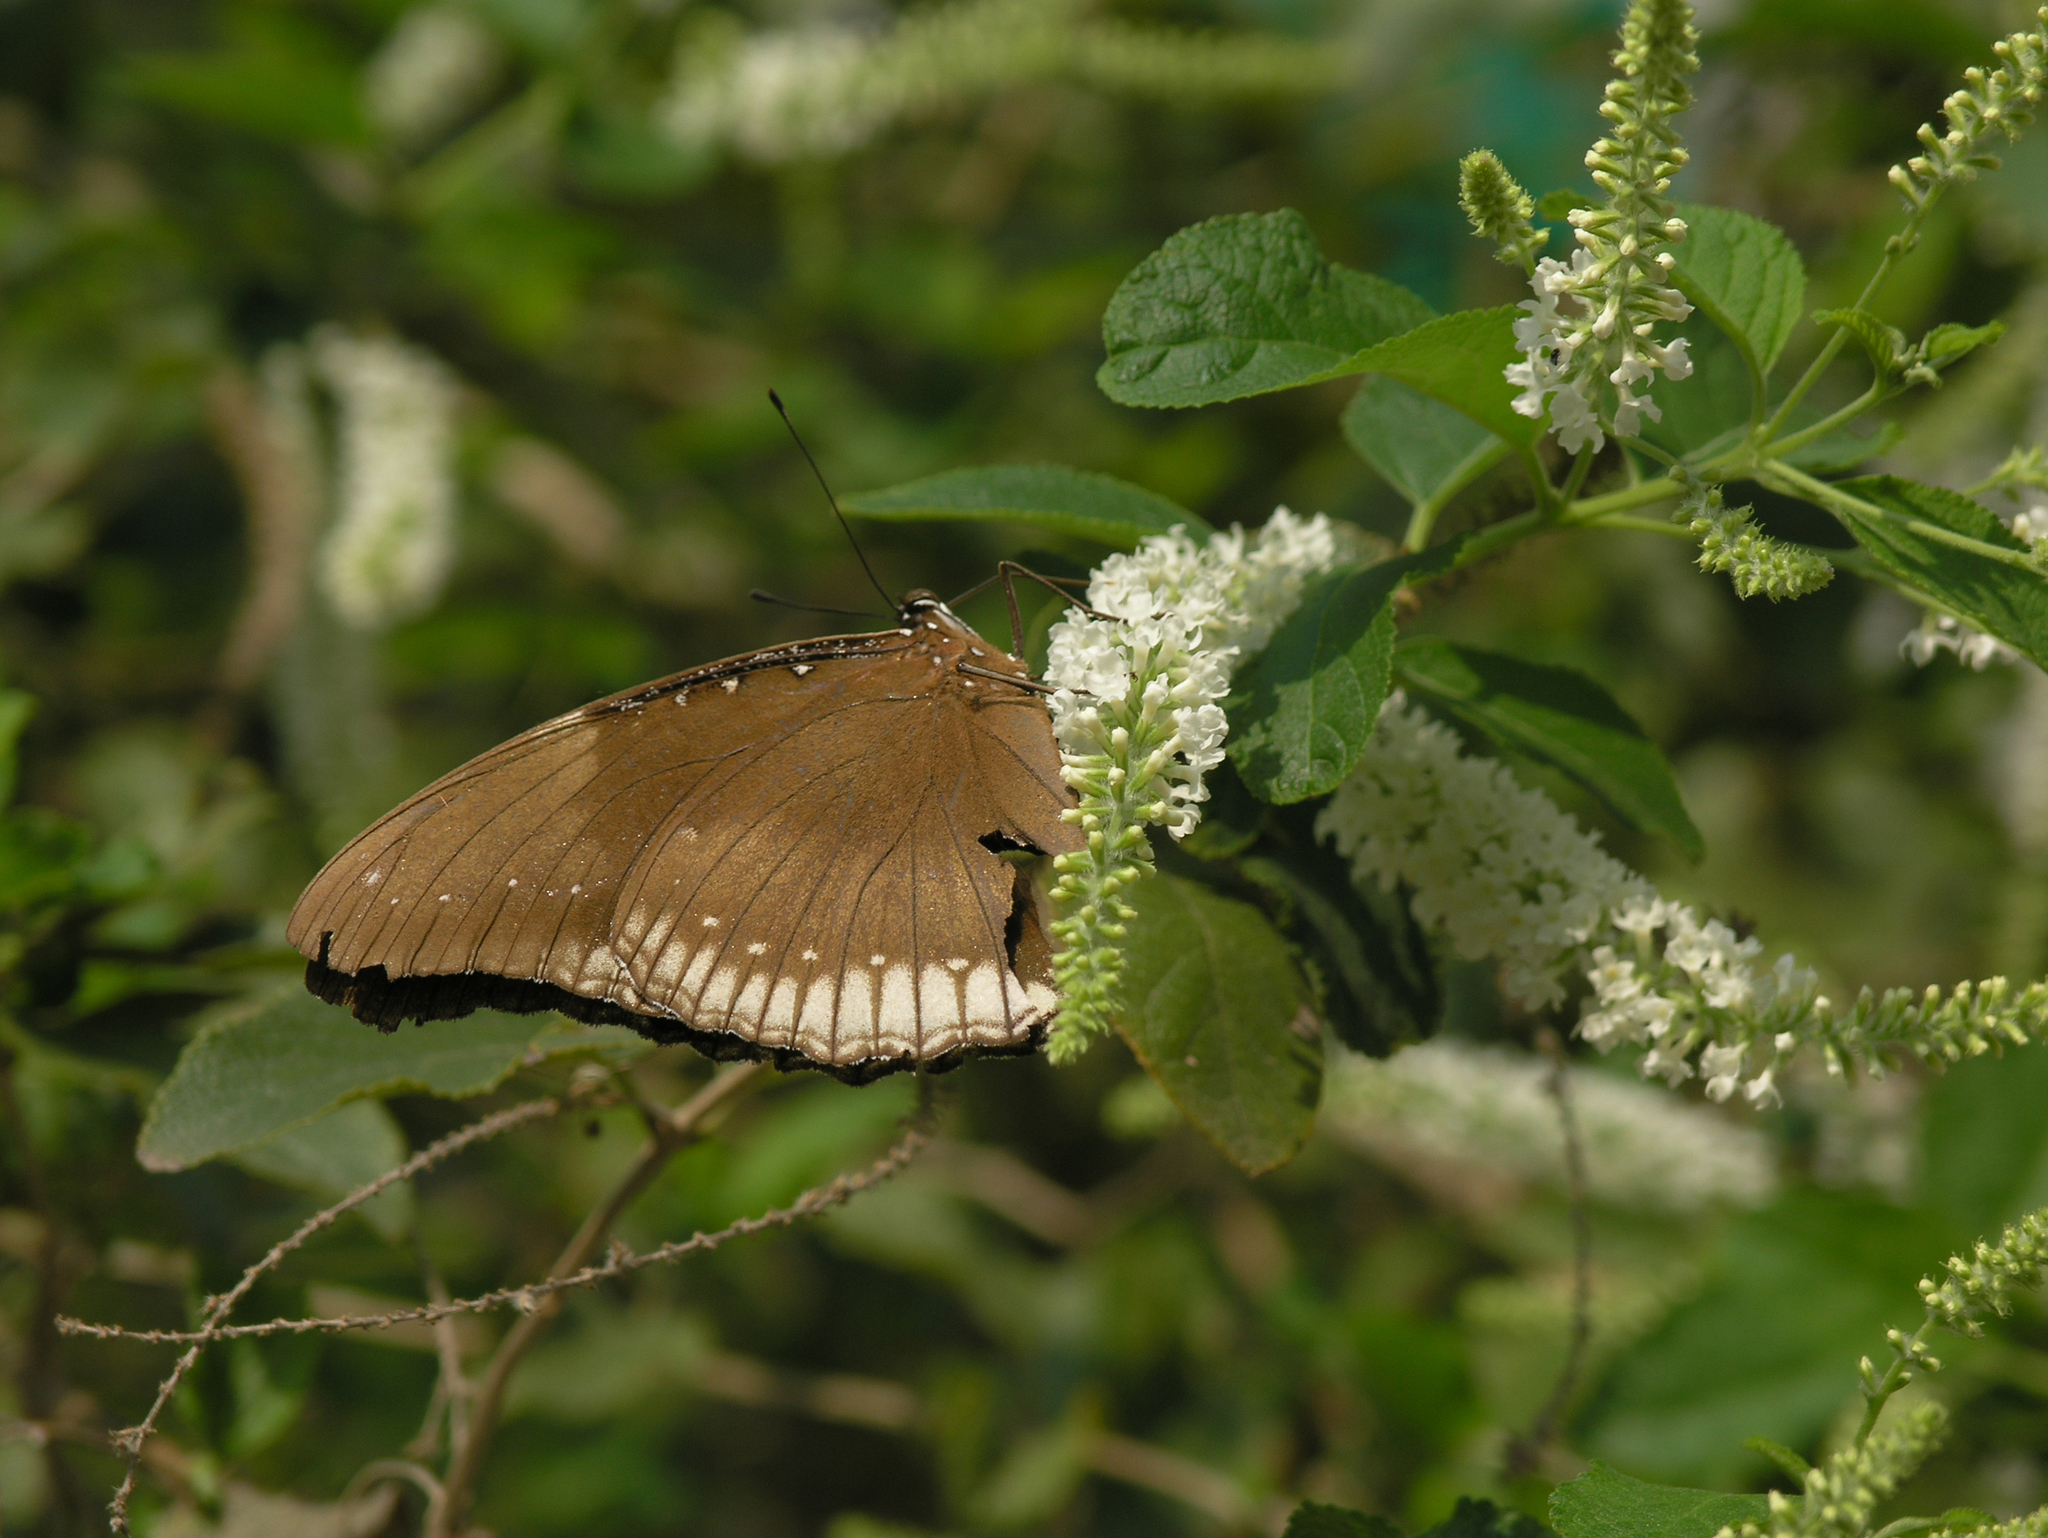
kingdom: Animalia
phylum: Arthropoda
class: Insecta
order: Lepidoptera
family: Nymphalidae
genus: Hypolimnas
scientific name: Hypolimnas bolina
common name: Great eggfly
